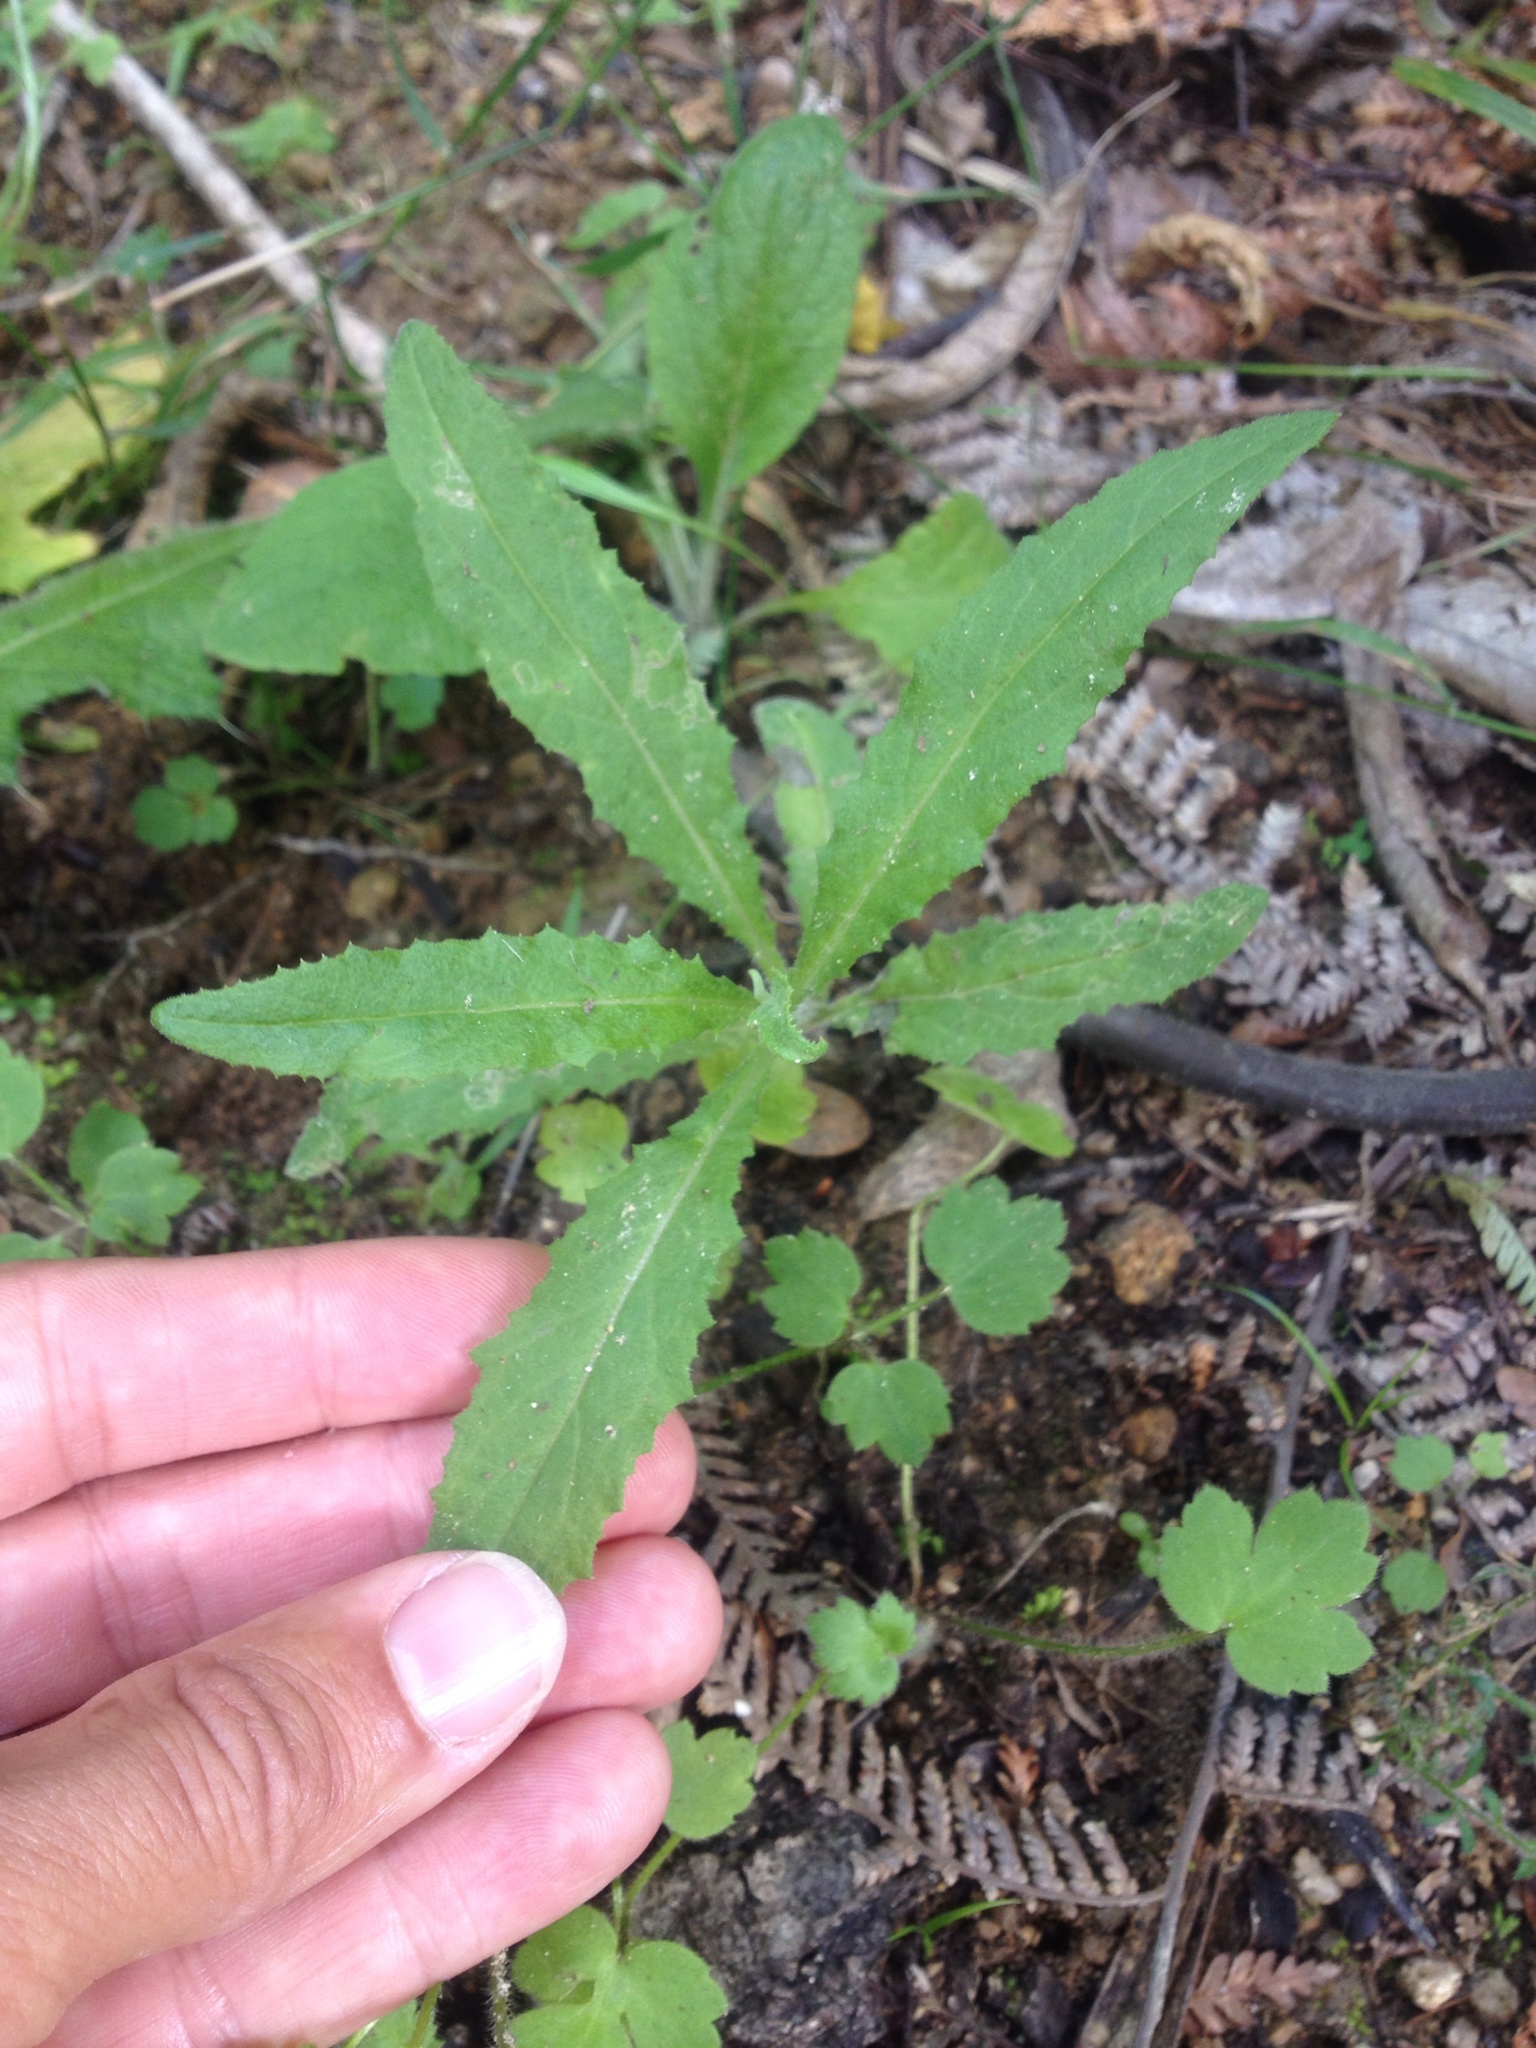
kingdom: Plantae
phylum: Tracheophyta
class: Magnoliopsida
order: Asterales
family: Asteraceae
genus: Senecio
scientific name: Senecio minimus
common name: Toothed fireweed
